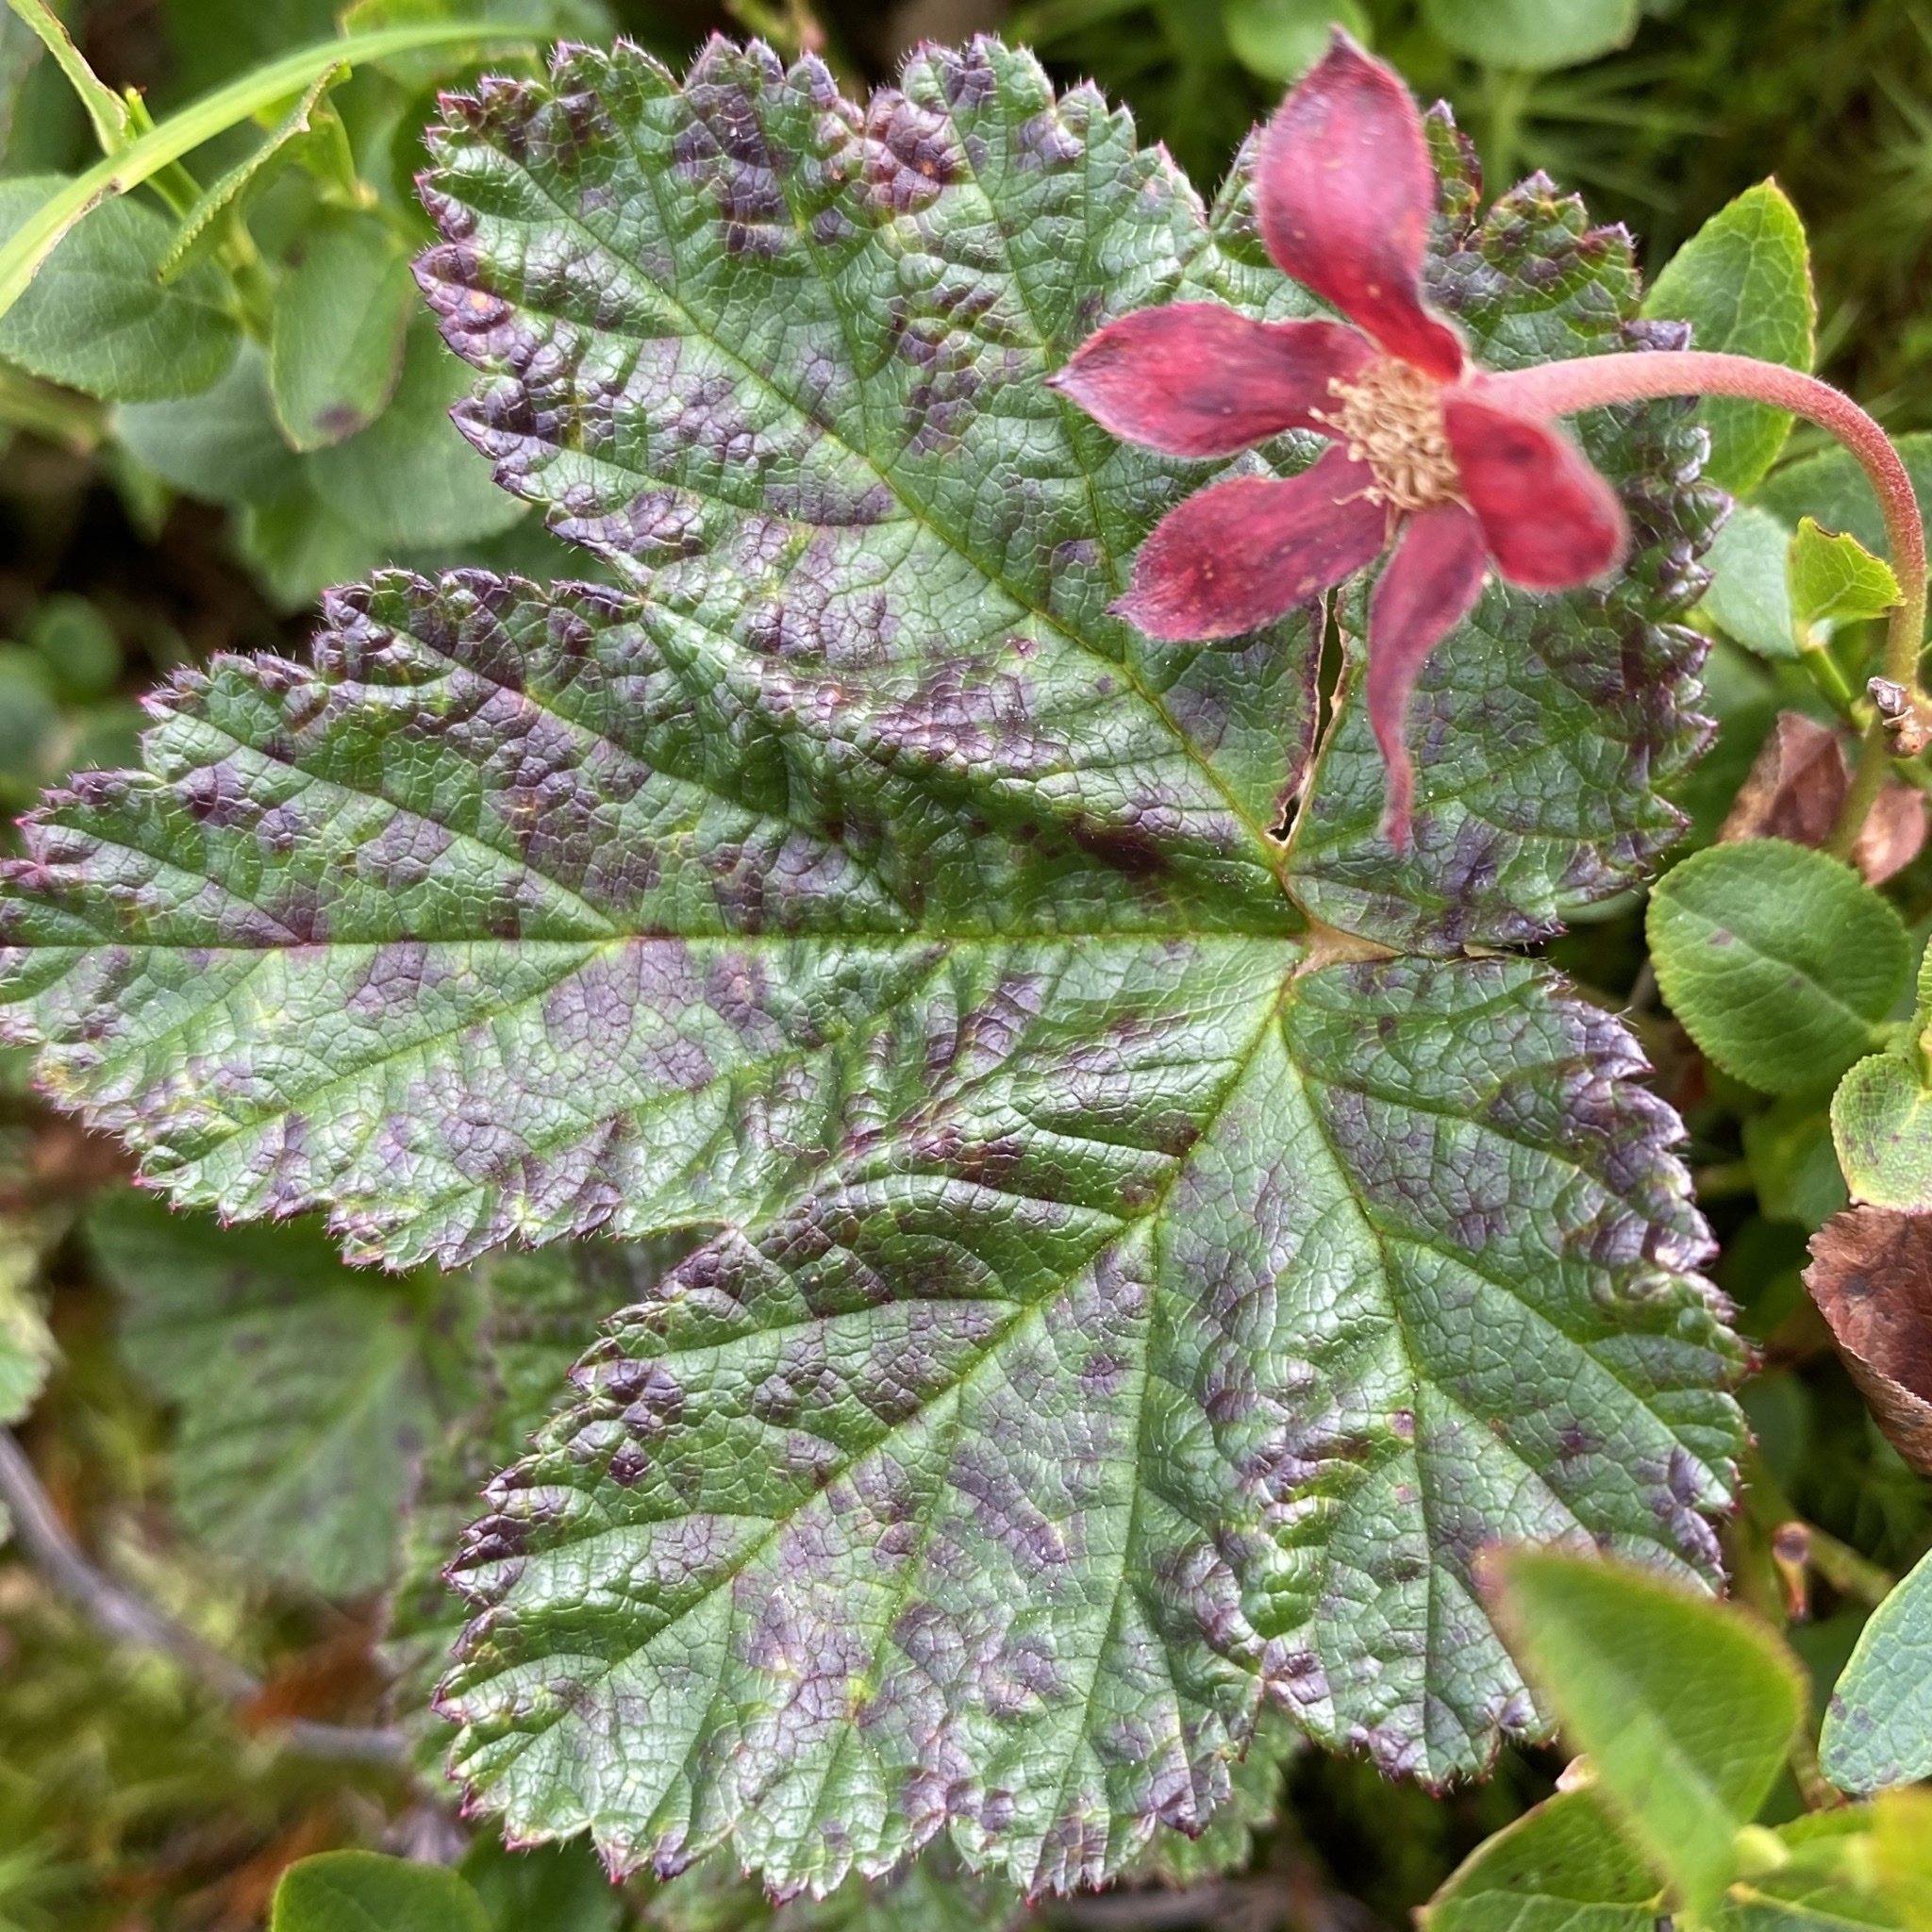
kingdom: Plantae
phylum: Tracheophyta
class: Magnoliopsida
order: Rosales
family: Rosaceae
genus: Rubus
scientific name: Rubus chamaemorus
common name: Cloudberry
